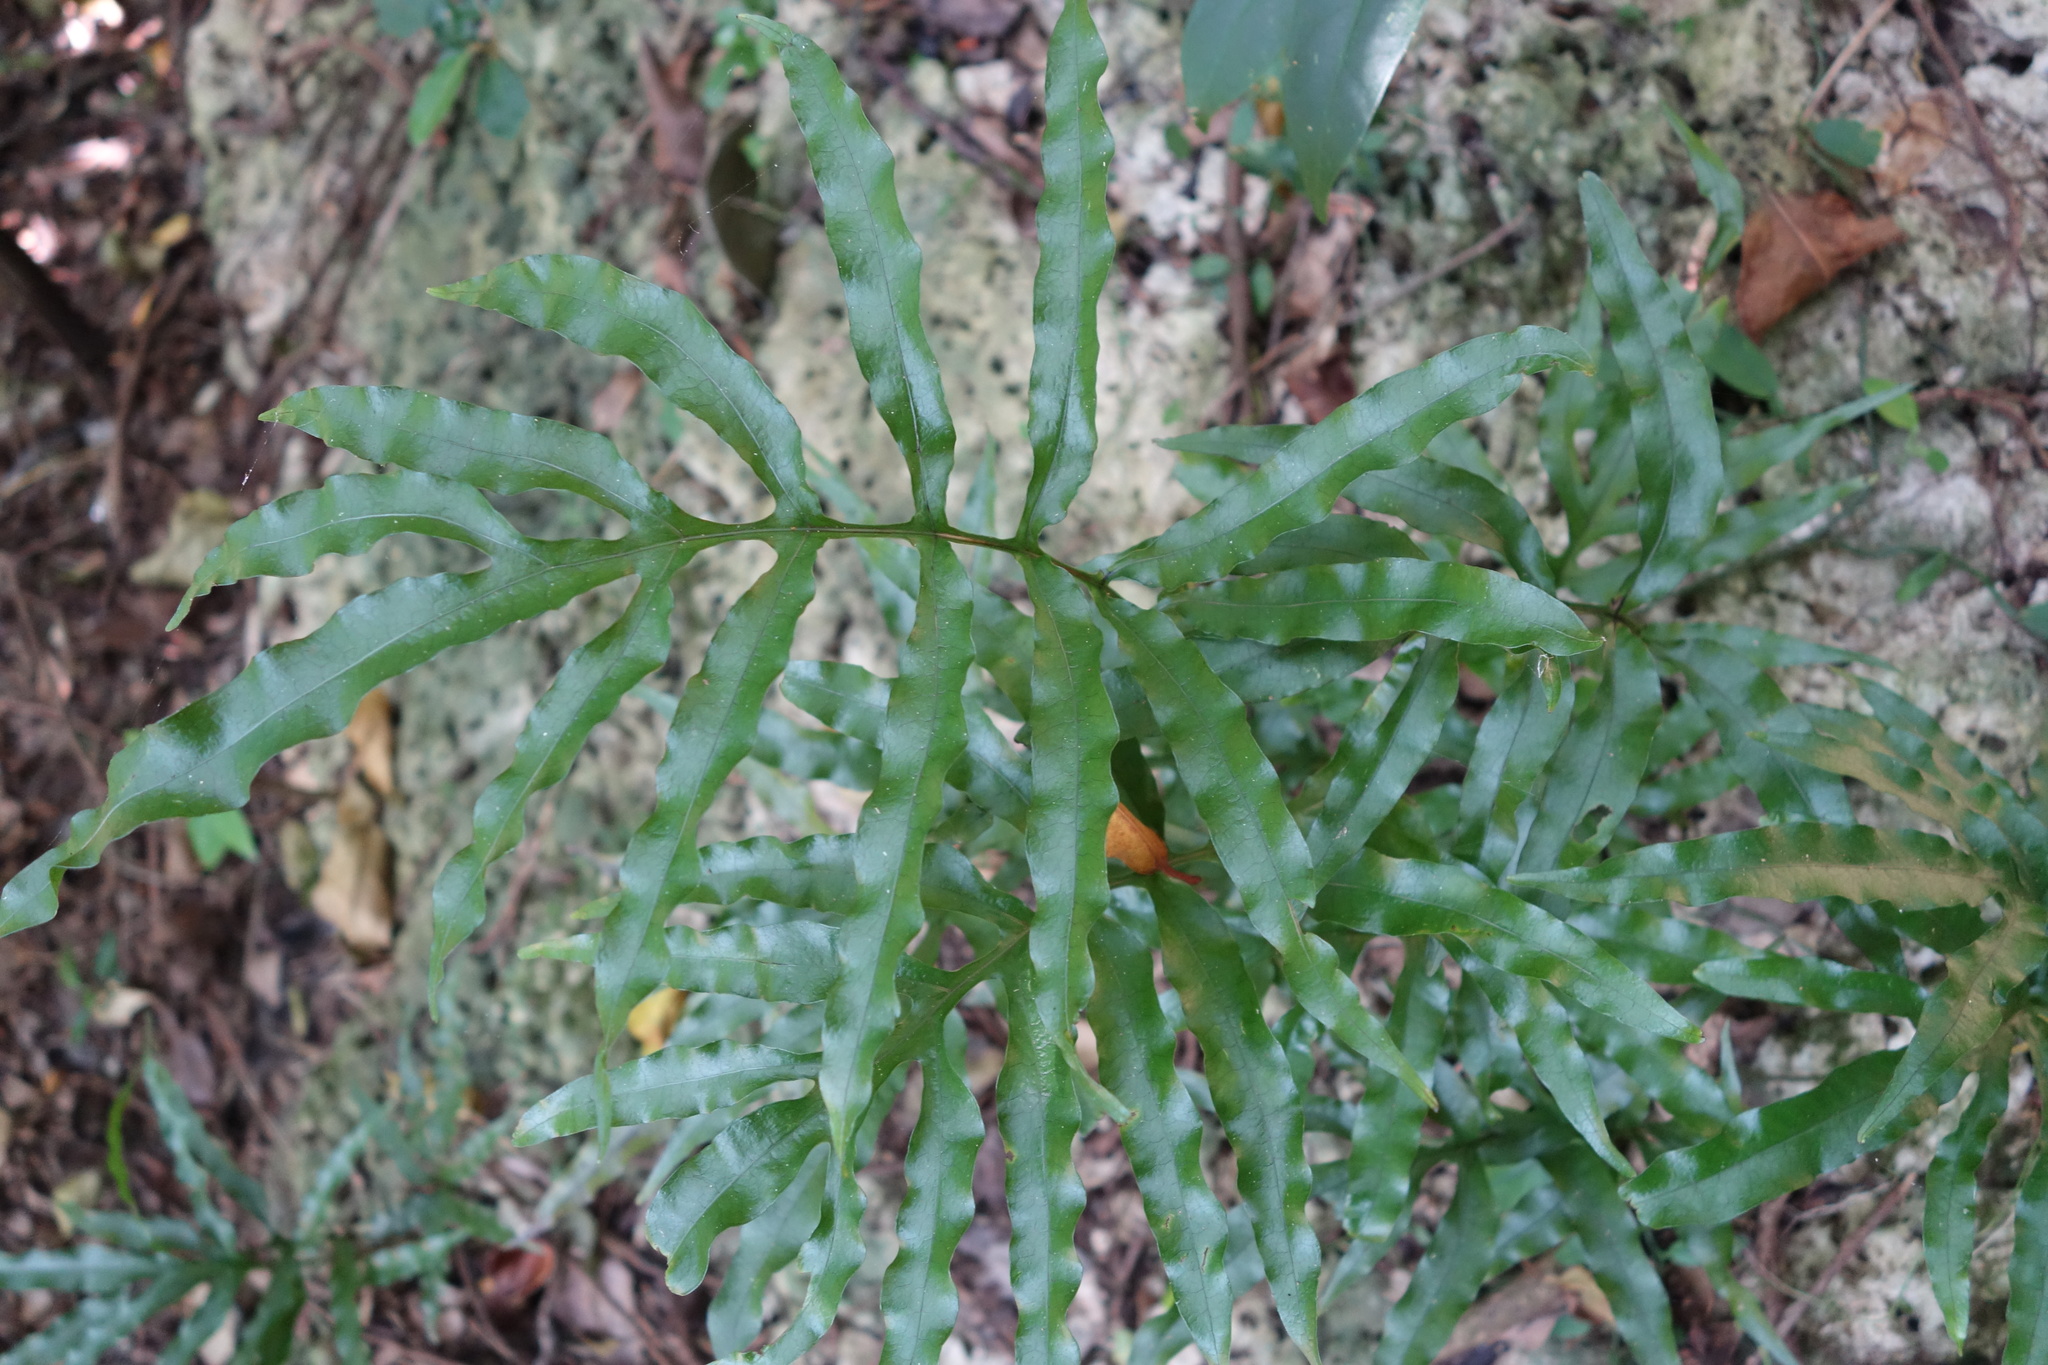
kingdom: Plantae
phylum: Tracheophyta
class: Polypodiopsida
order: Polypodiales
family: Polypodiaceae
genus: Leptochilus
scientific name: Leptochilus ellipticus
